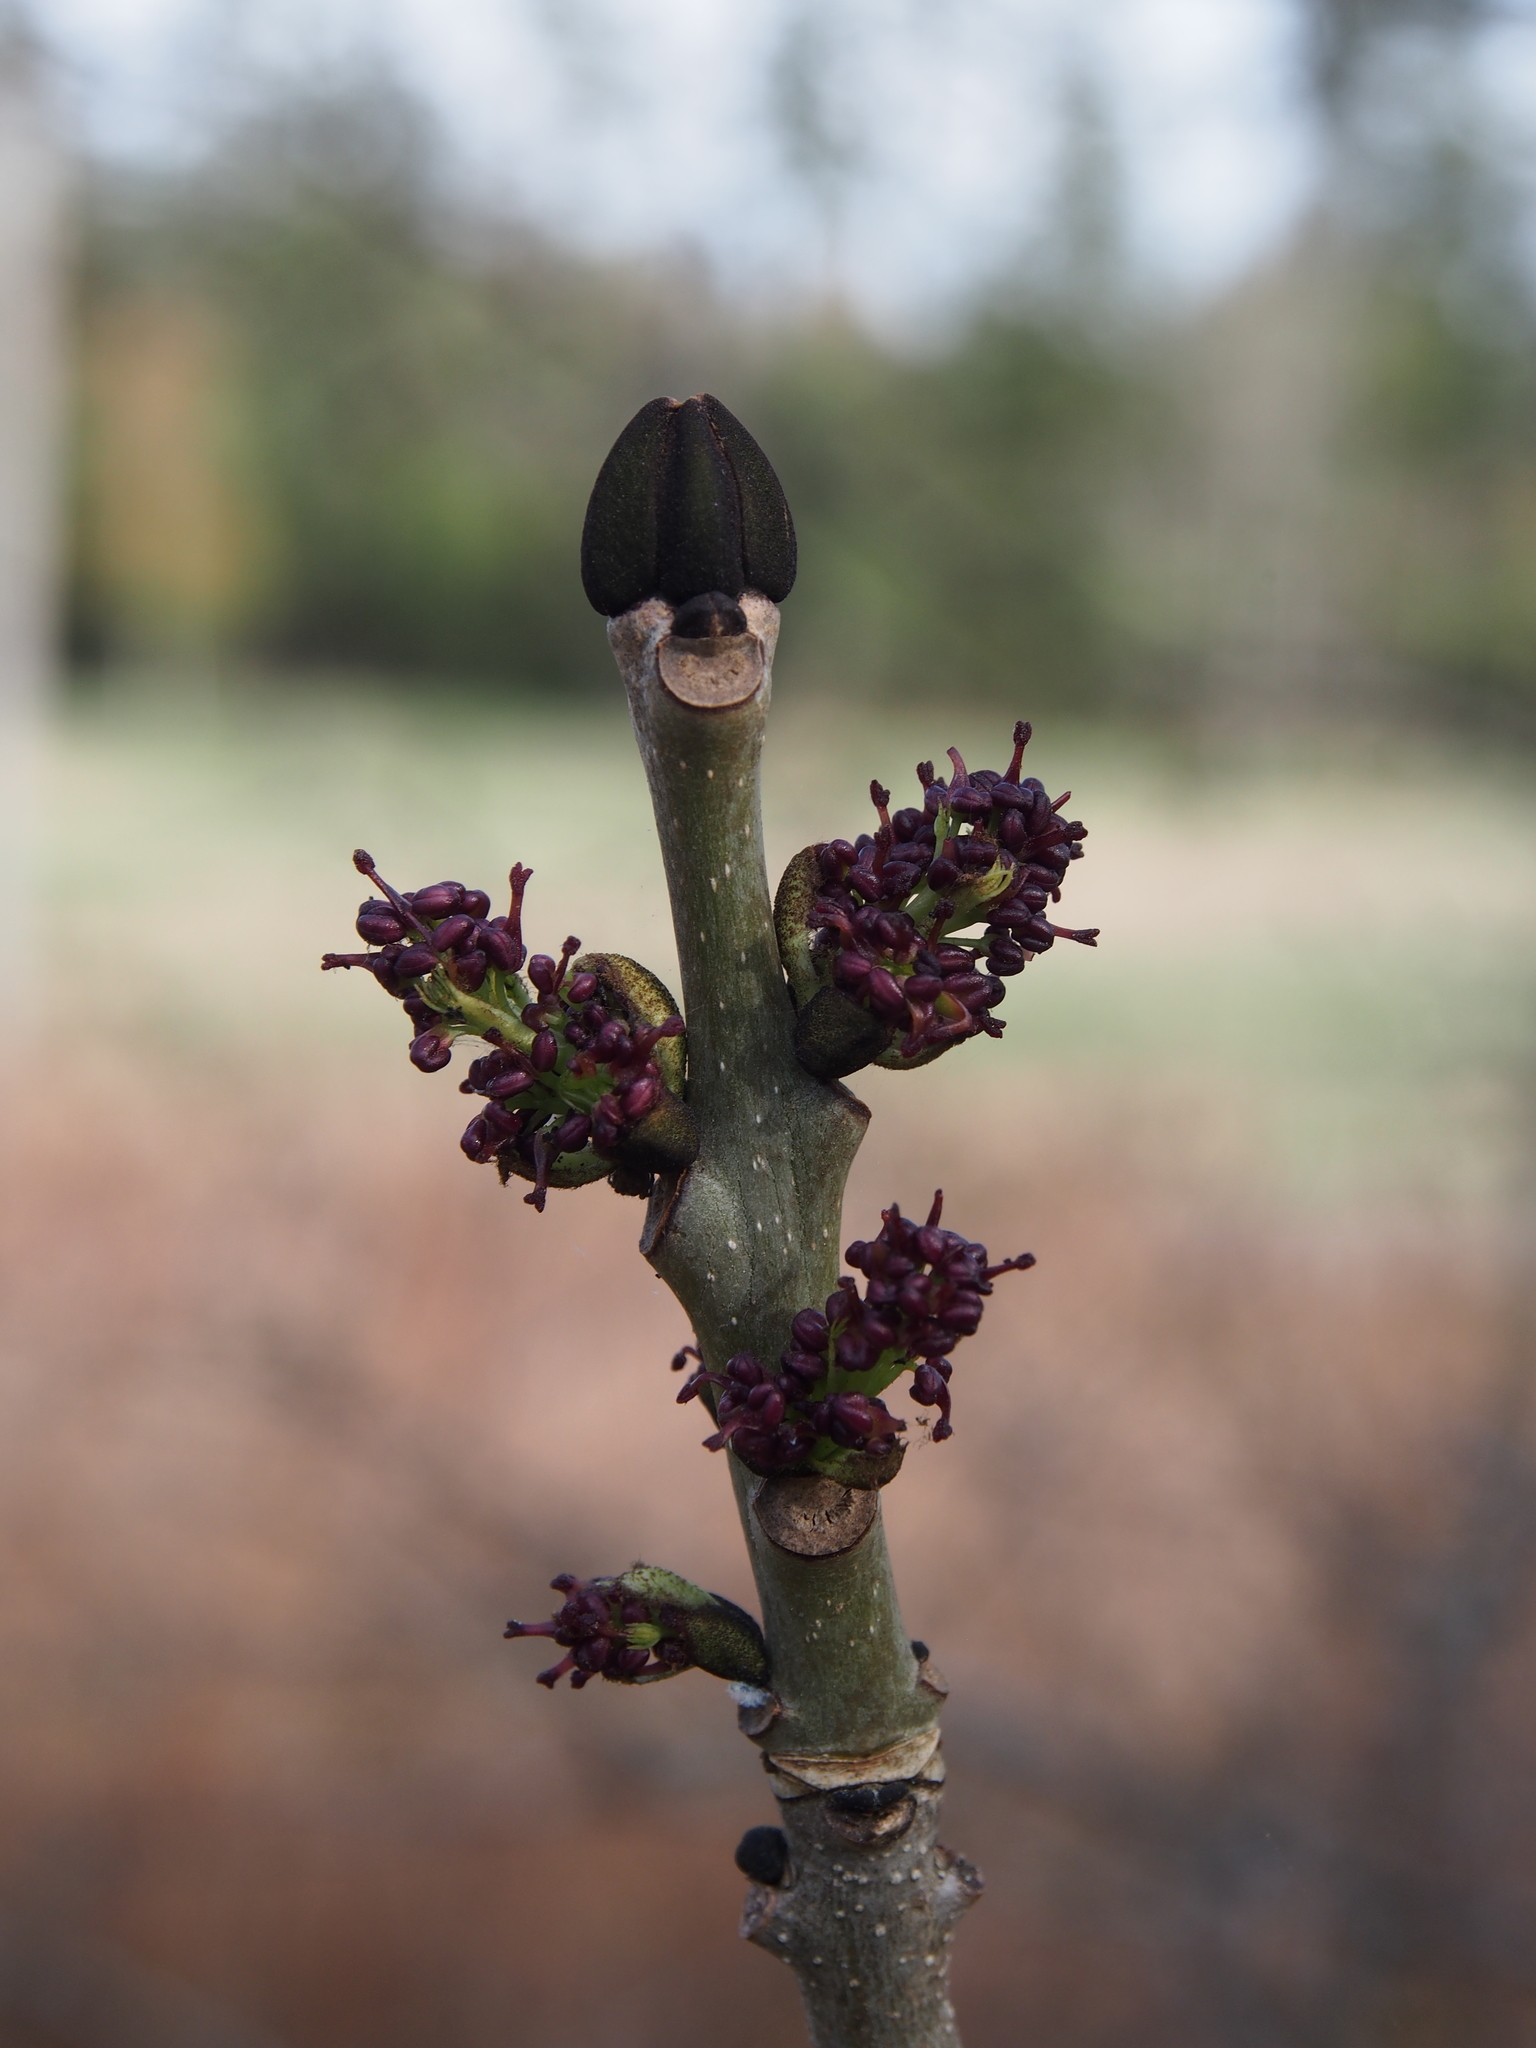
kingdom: Plantae
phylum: Tracheophyta
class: Magnoliopsida
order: Lamiales
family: Oleaceae
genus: Fraxinus
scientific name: Fraxinus excelsior
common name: European ash
